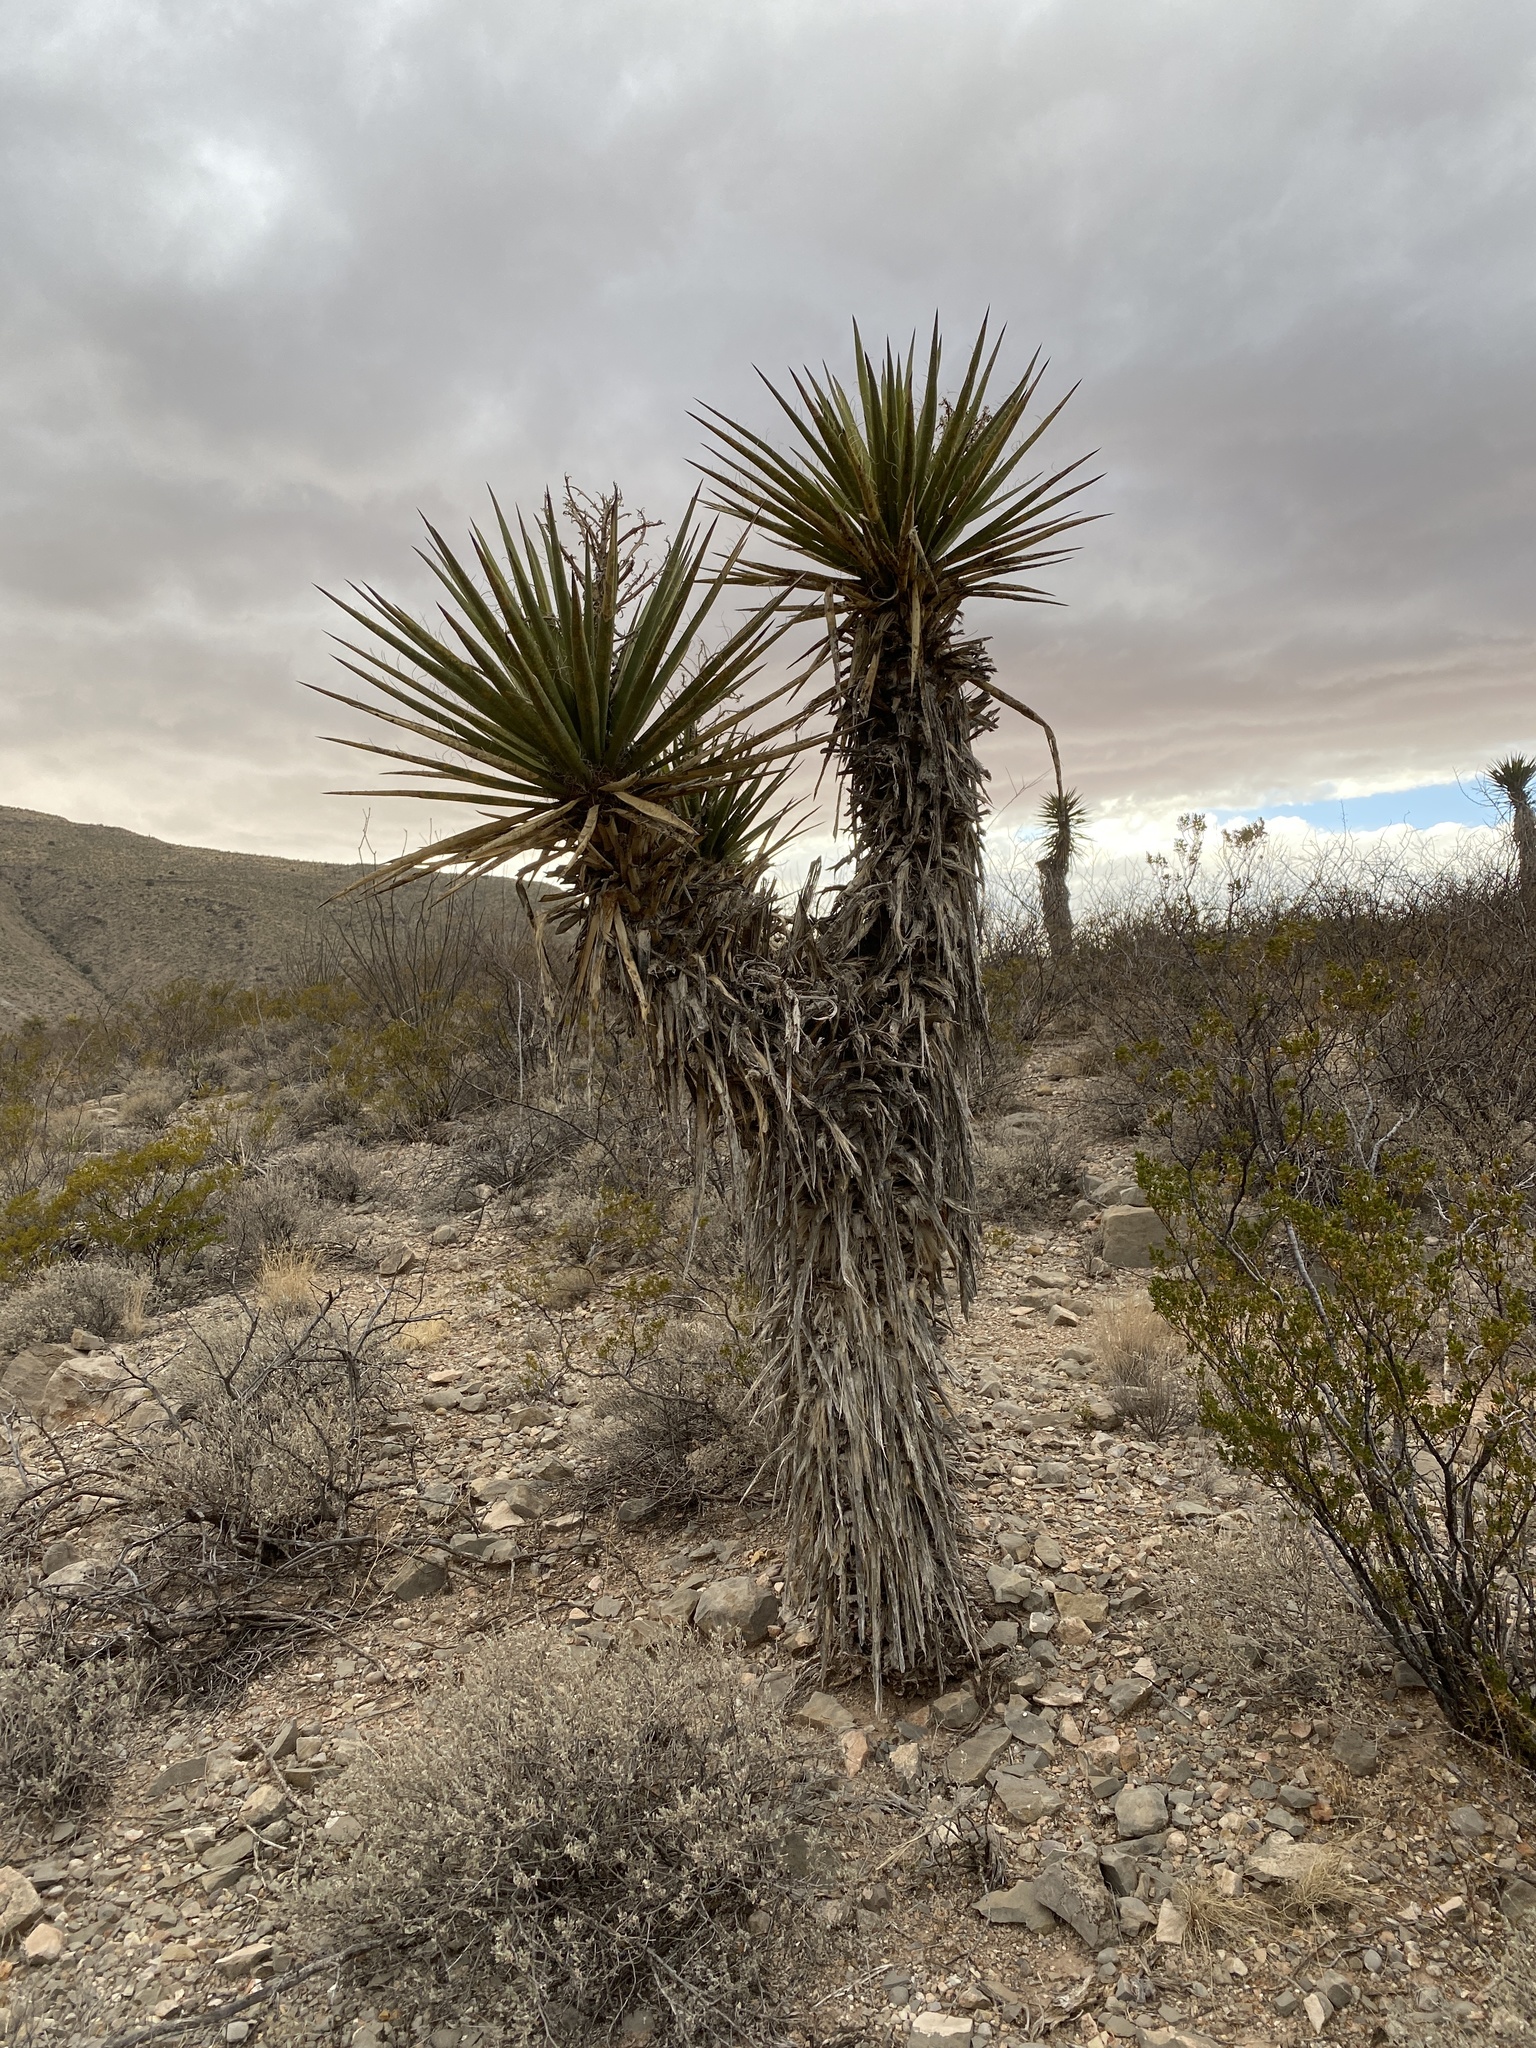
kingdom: Plantae
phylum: Tracheophyta
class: Liliopsida
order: Asparagales
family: Asparagaceae
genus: Yucca
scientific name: Yucca treculiana
